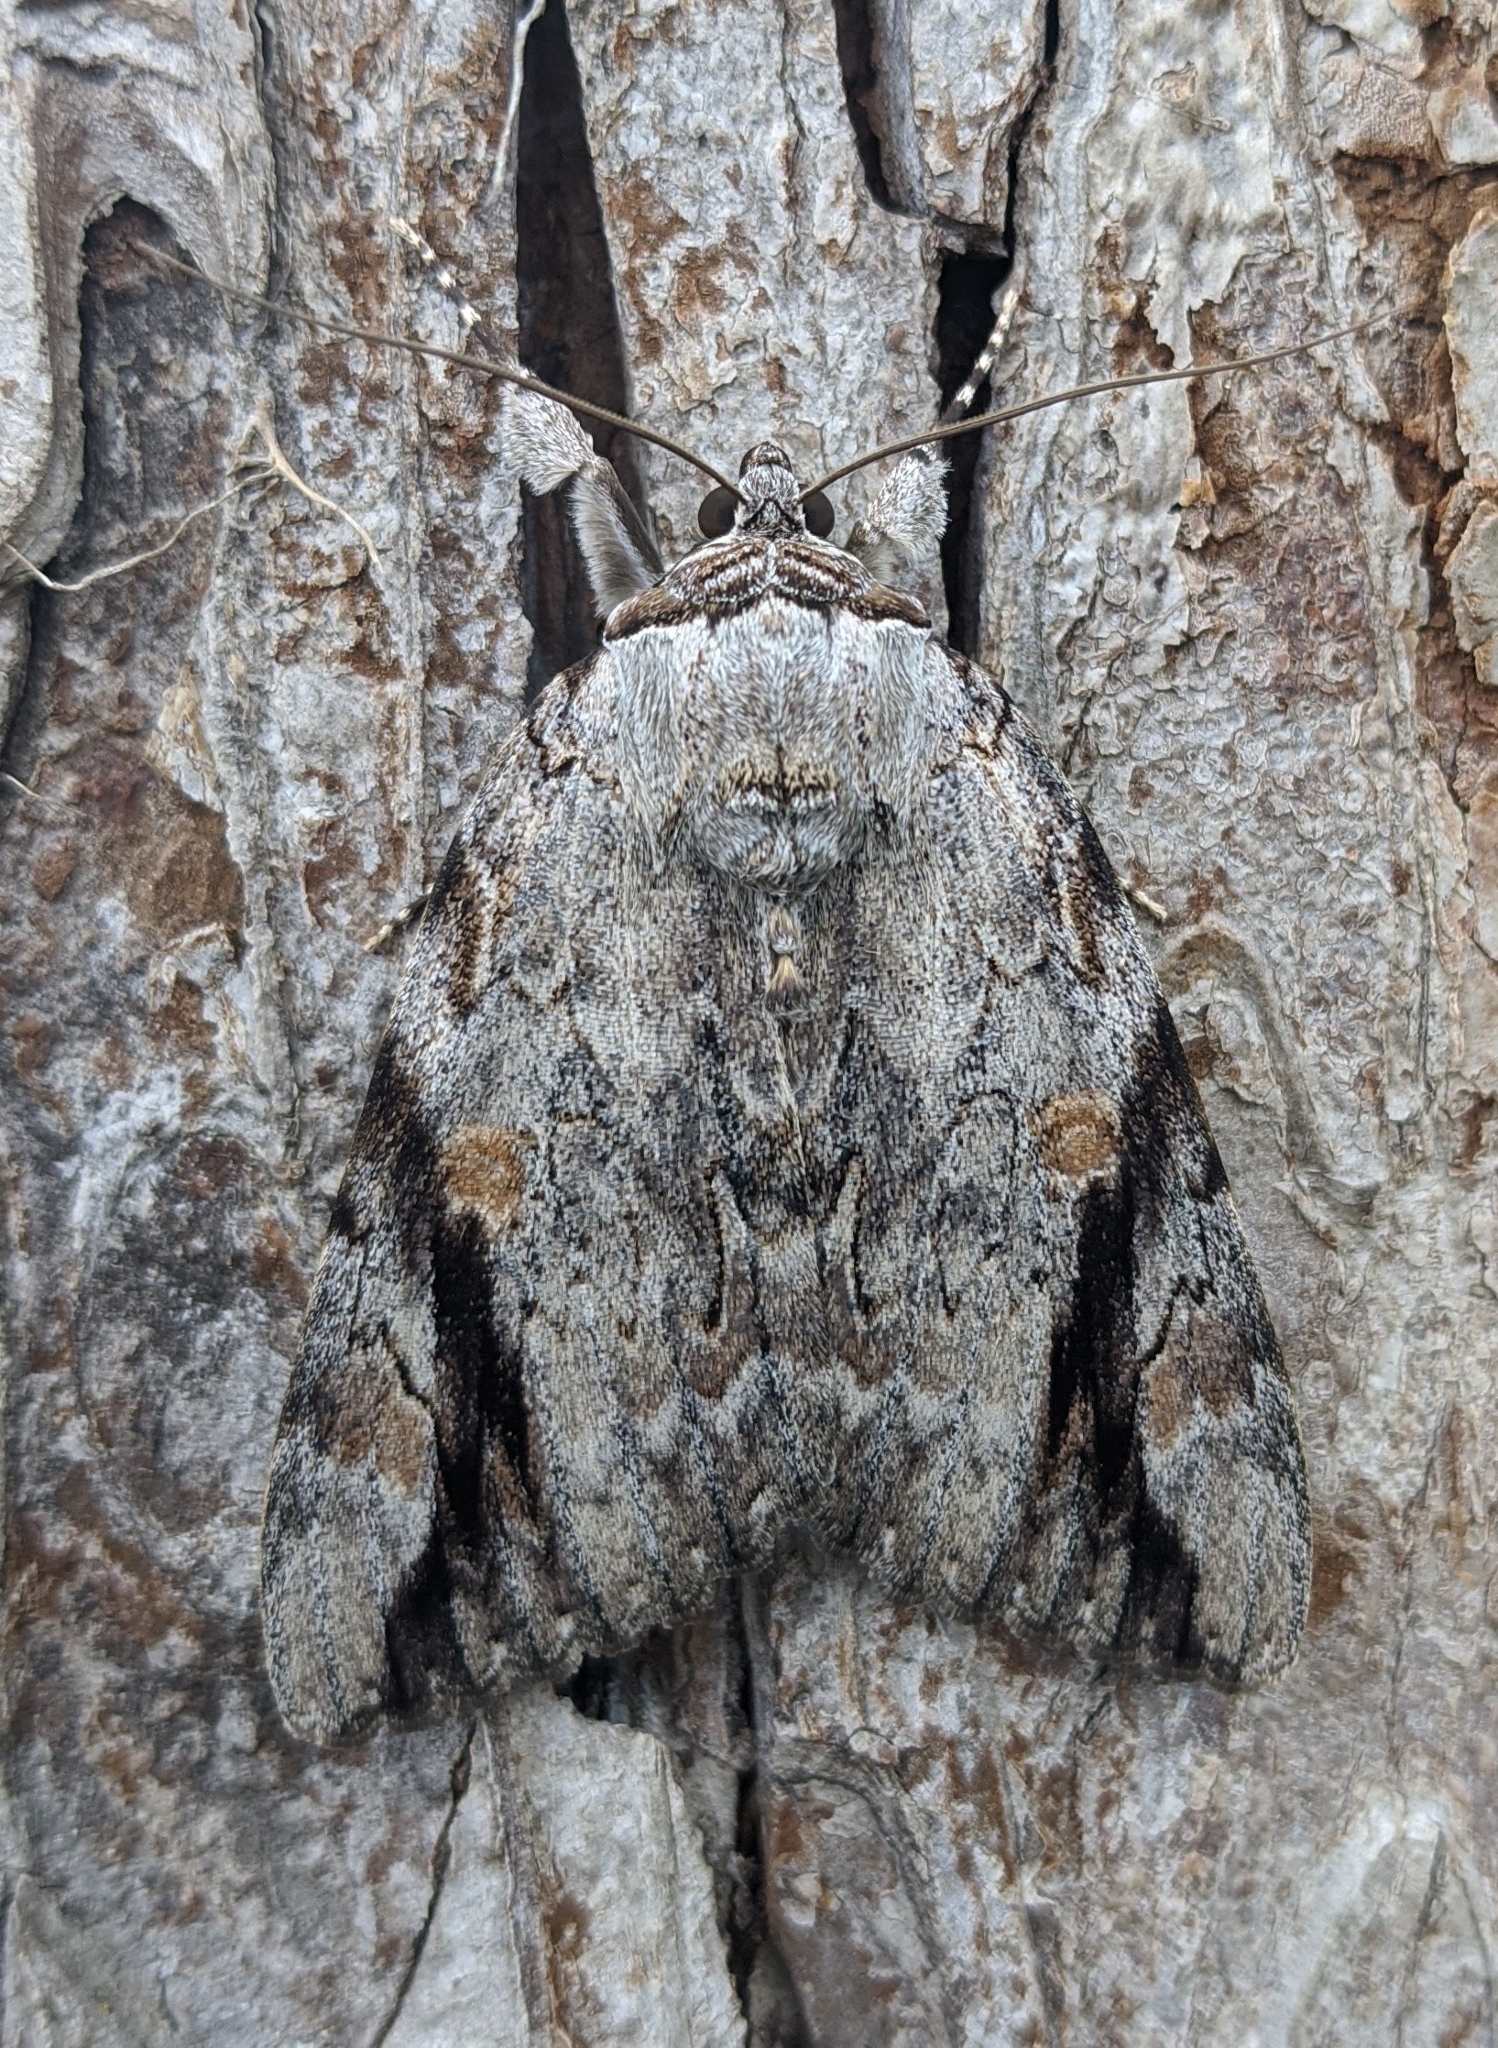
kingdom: Animalia
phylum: Arthropoda
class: Insecta
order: Lepidoptera
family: Erebidae
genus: Catocala
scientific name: Catocala maestosa
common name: Sad underwing
